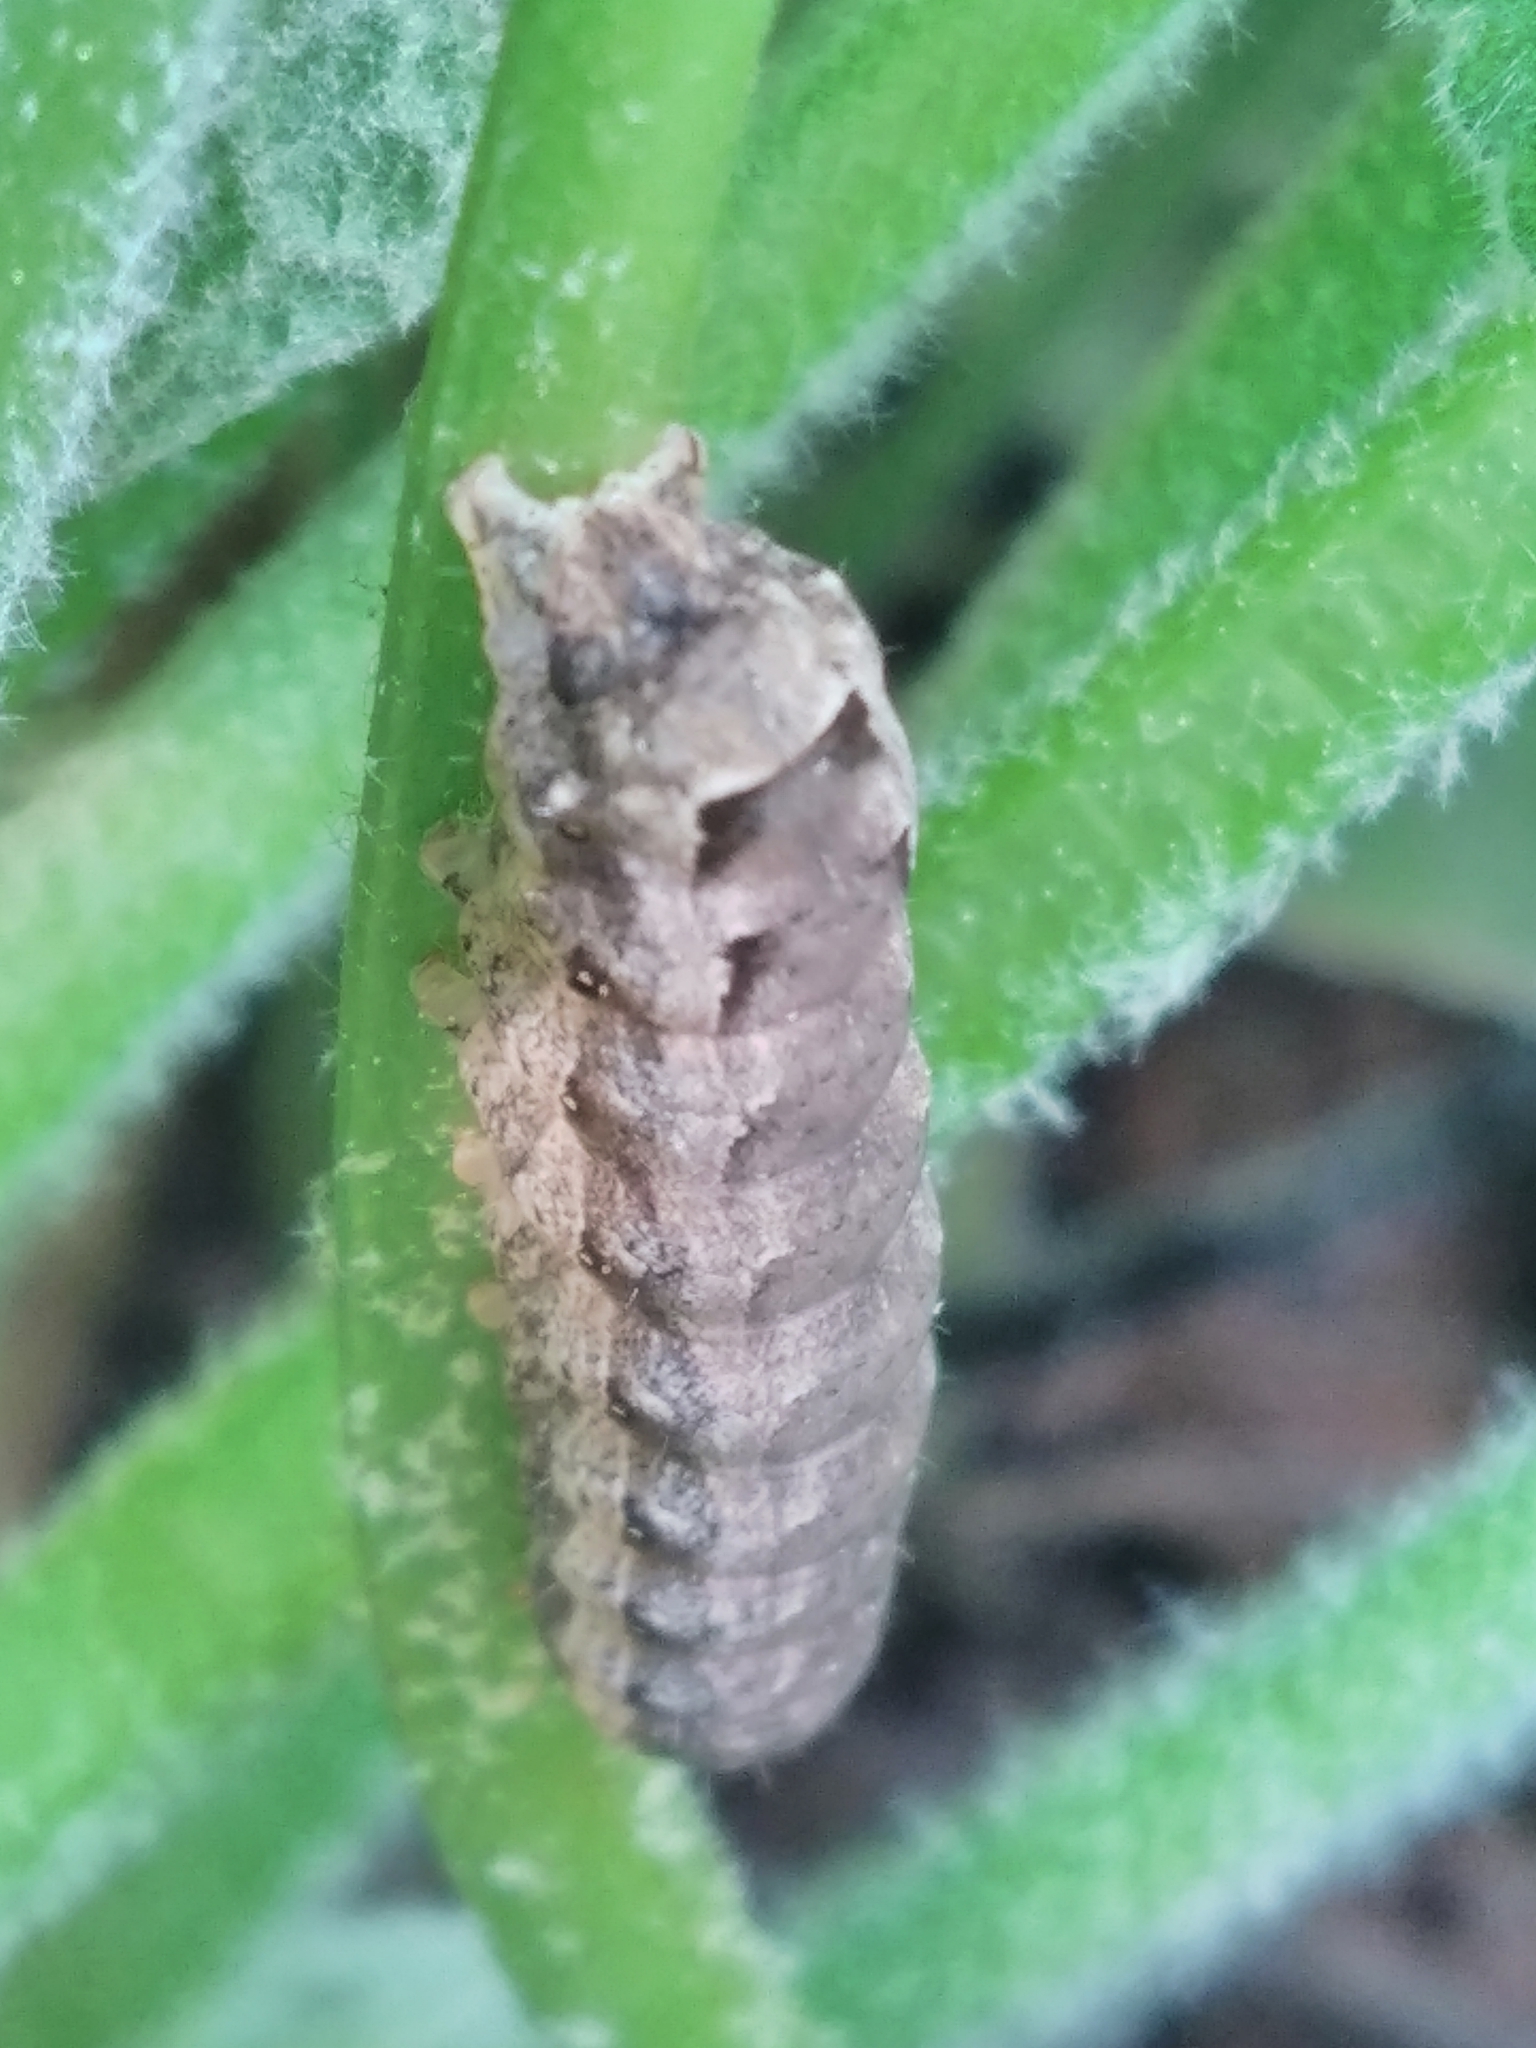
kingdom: Animalia
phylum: Arthropoda
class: Insecta
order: Lepidoptera
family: Noctuidae
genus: Noctua
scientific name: Noctua comes
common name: Lesser yellow underwing
